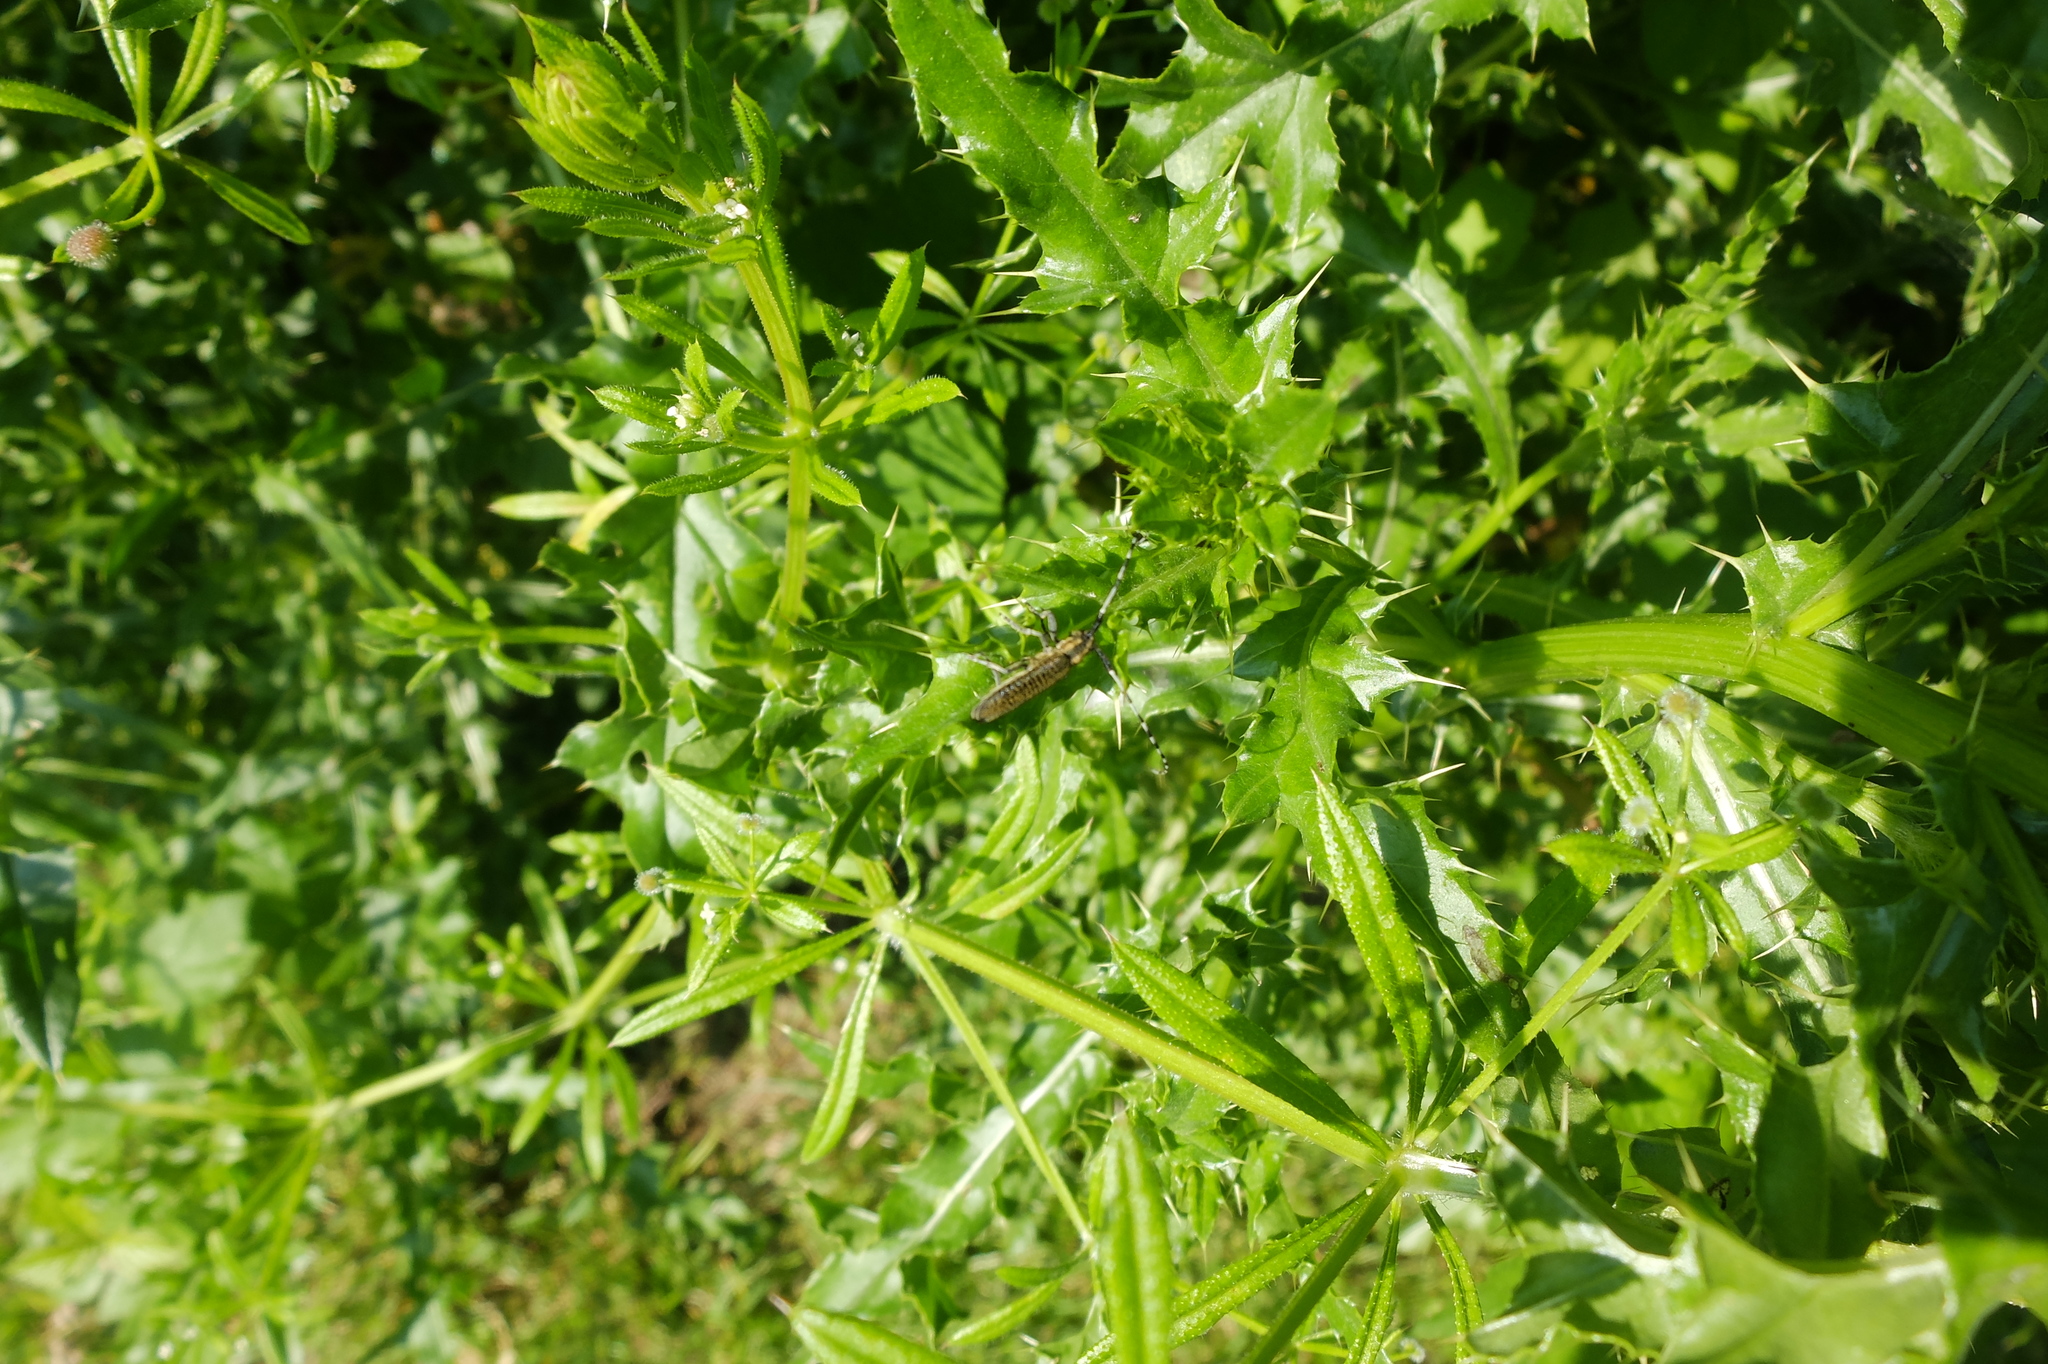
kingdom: Animalia
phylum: Arthropoda
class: Insecta
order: Coleoptera
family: Cerambycidae
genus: Agapanthia
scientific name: Agapanthia villosoviridescens
